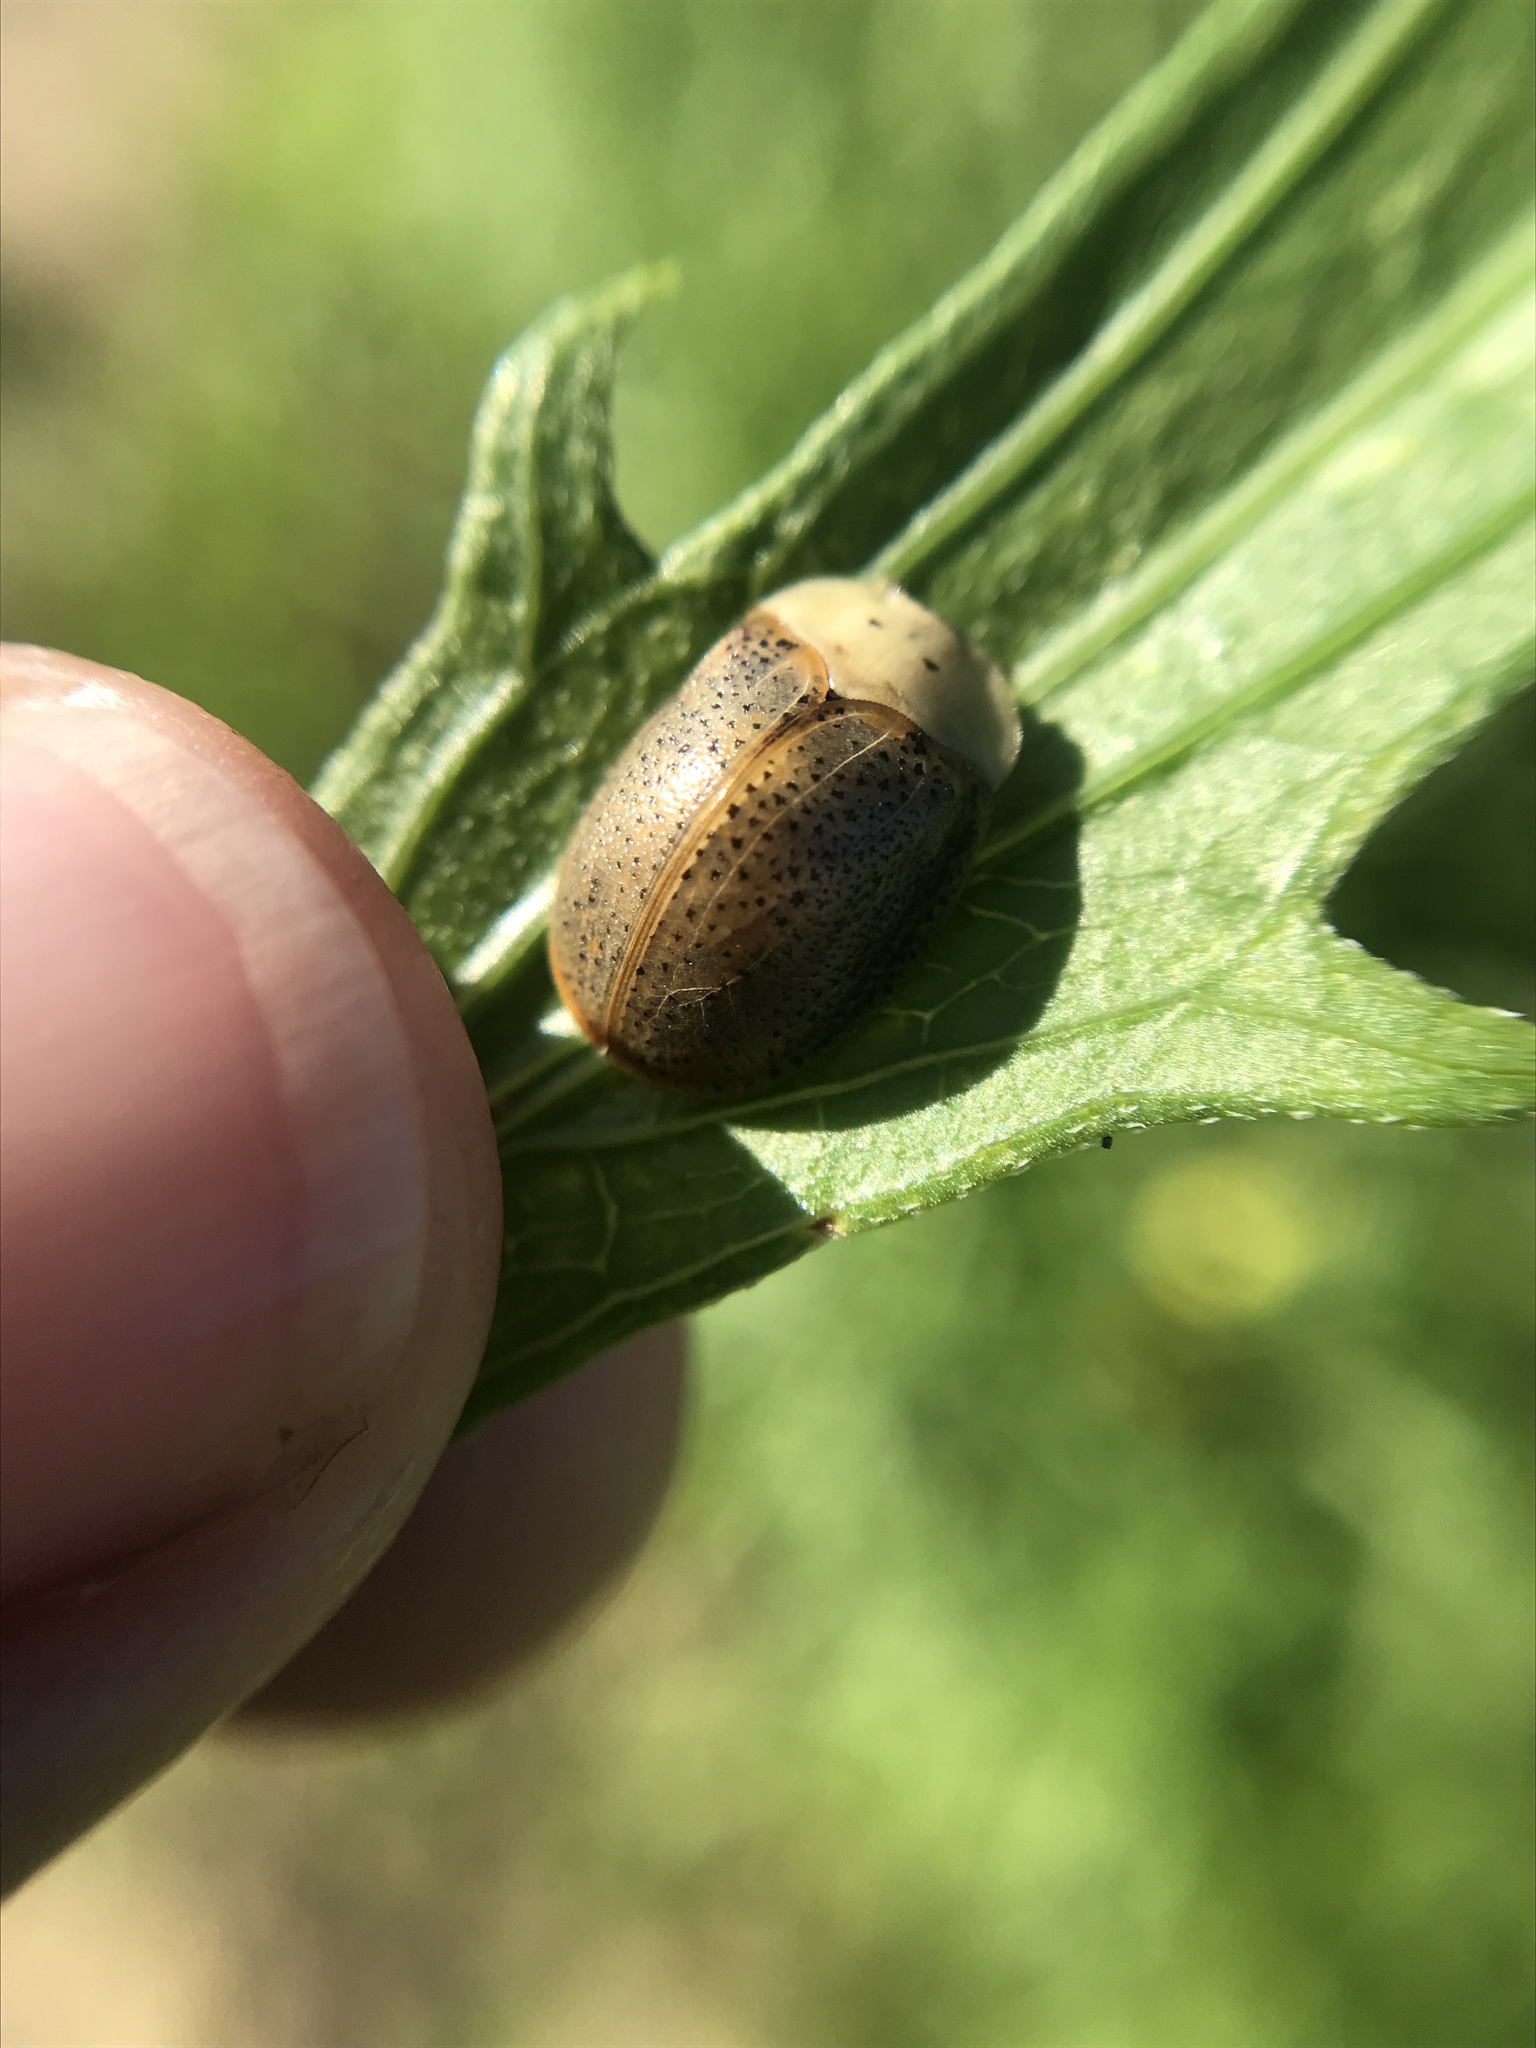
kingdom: Animalia
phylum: Arthropoda
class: Insecta
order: Coleoptera
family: Chrysomelidae
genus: Chelymorpha
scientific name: Chelymorpha indigesta
